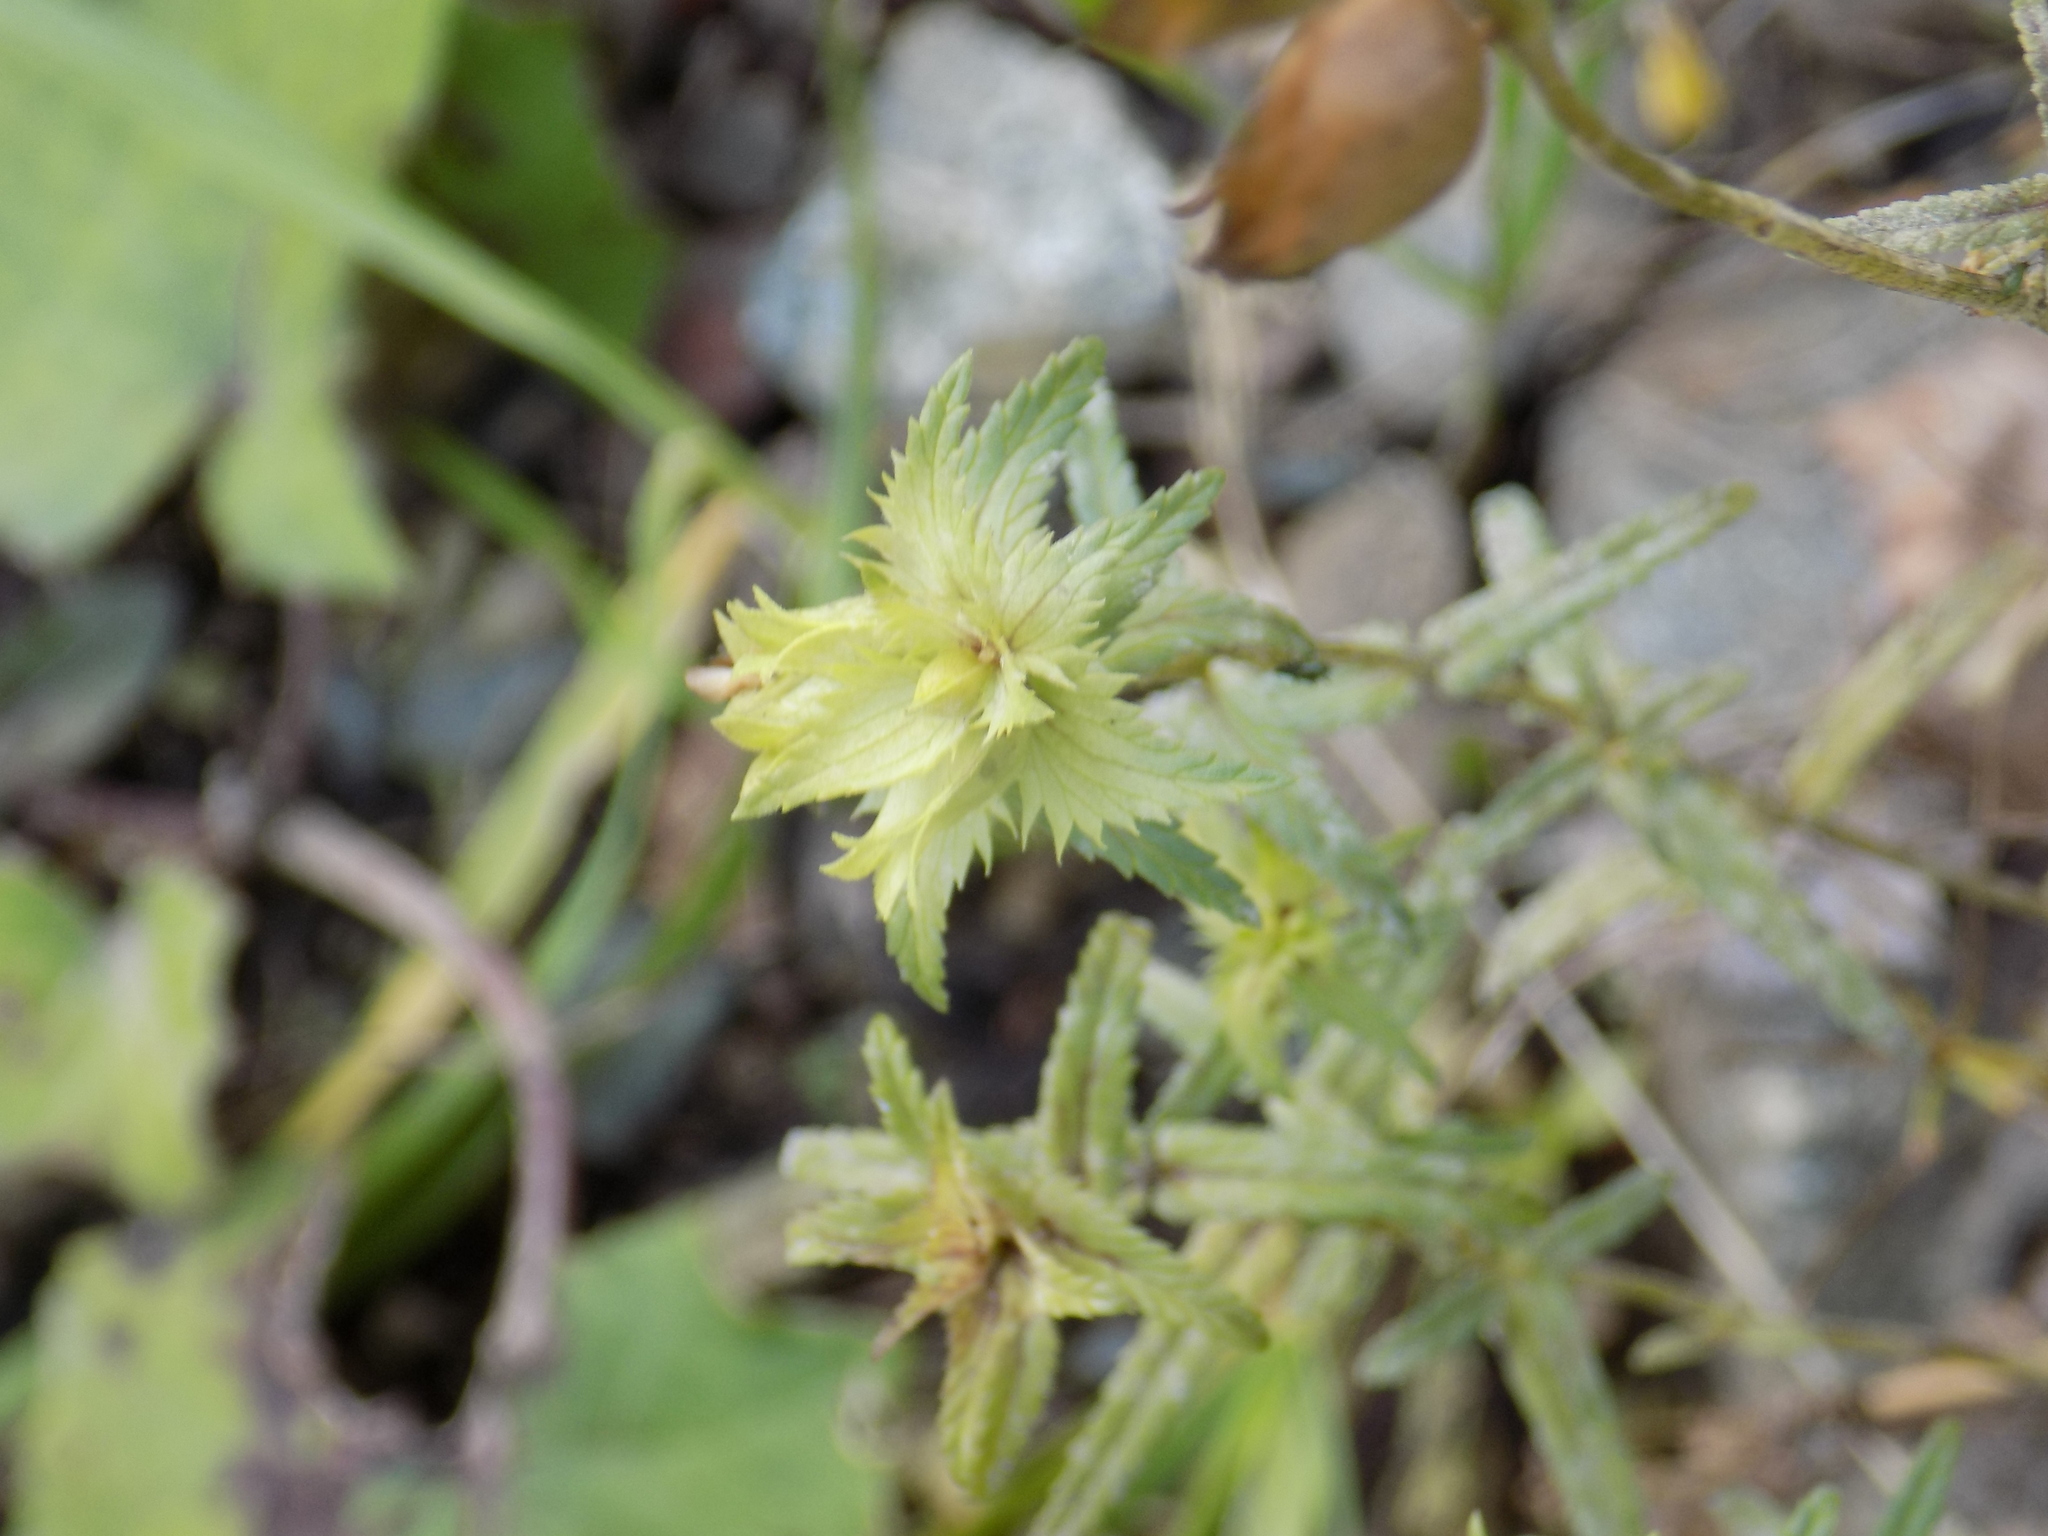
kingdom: Plantae
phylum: Tracheophyta
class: Magnoliopsida
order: Lamiales
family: Orobanchaceae
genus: Rhinanthus
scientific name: Rhinanthus serotinus
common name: Late-flowering yellow rattle
